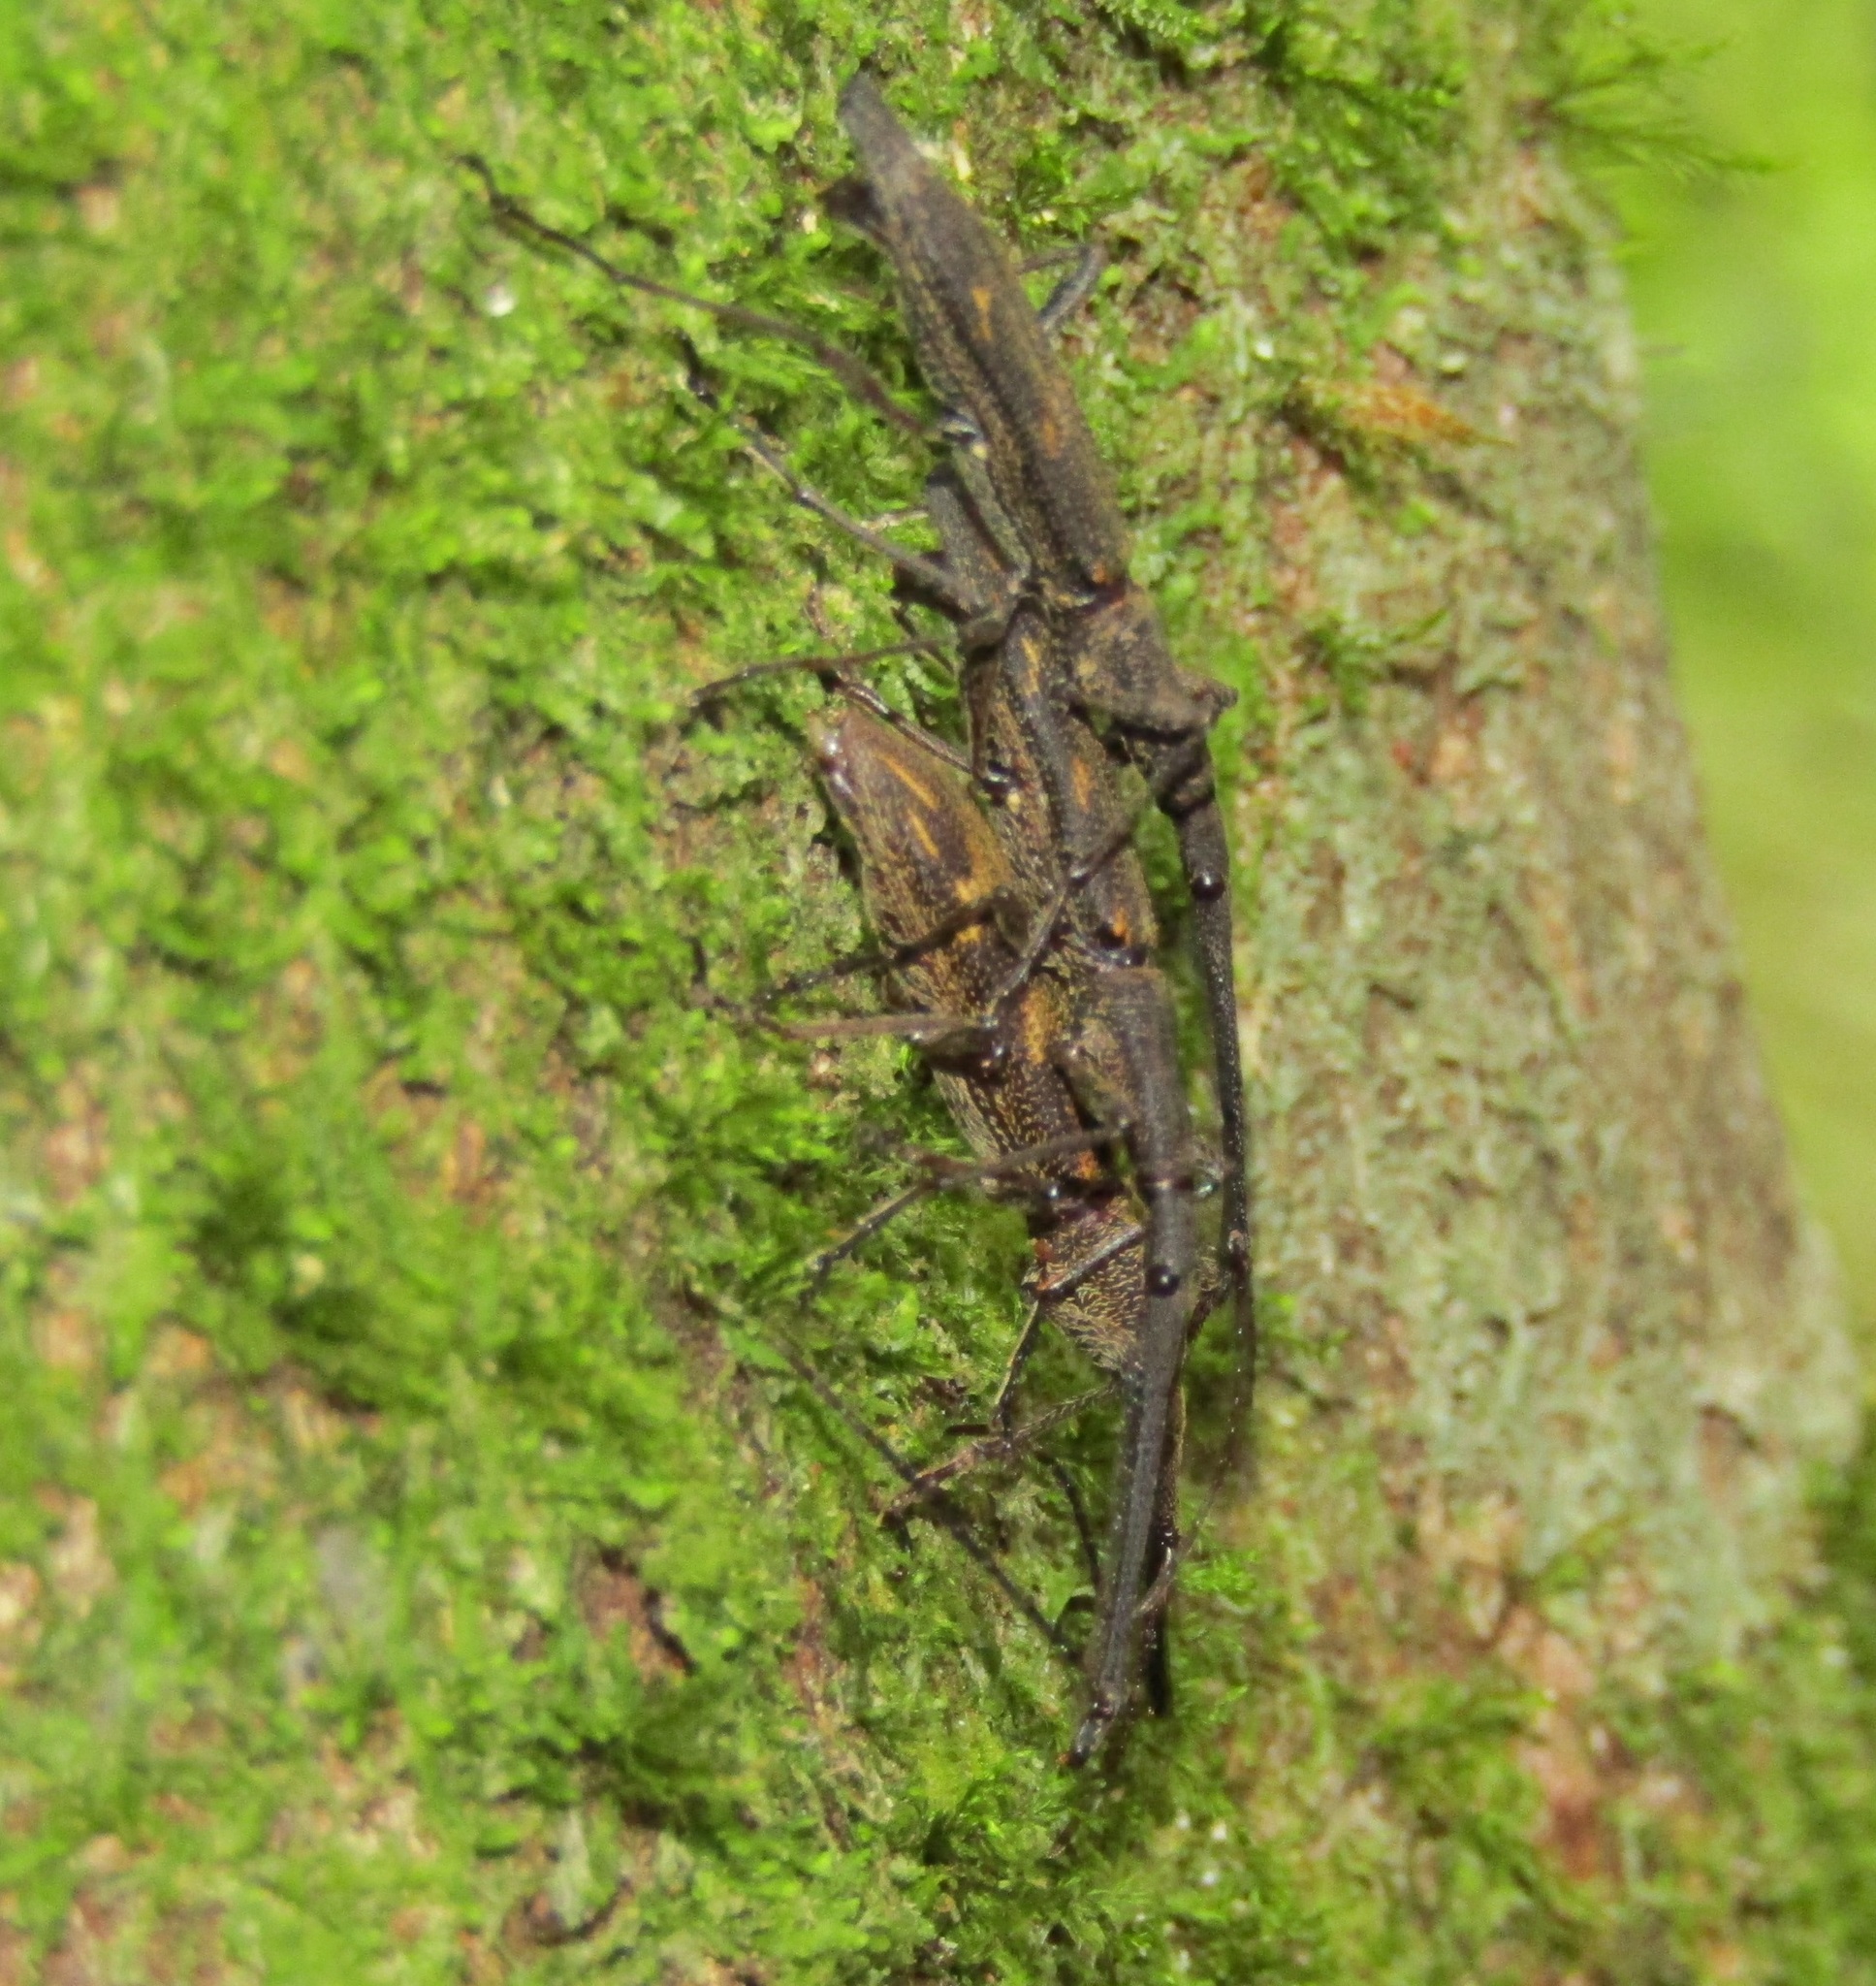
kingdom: Animalia
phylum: Arthropoda
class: Insecta
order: Coleoptera
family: Brentidae
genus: Lasiorhynchus
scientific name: Lasiorhynchus barbicornis
